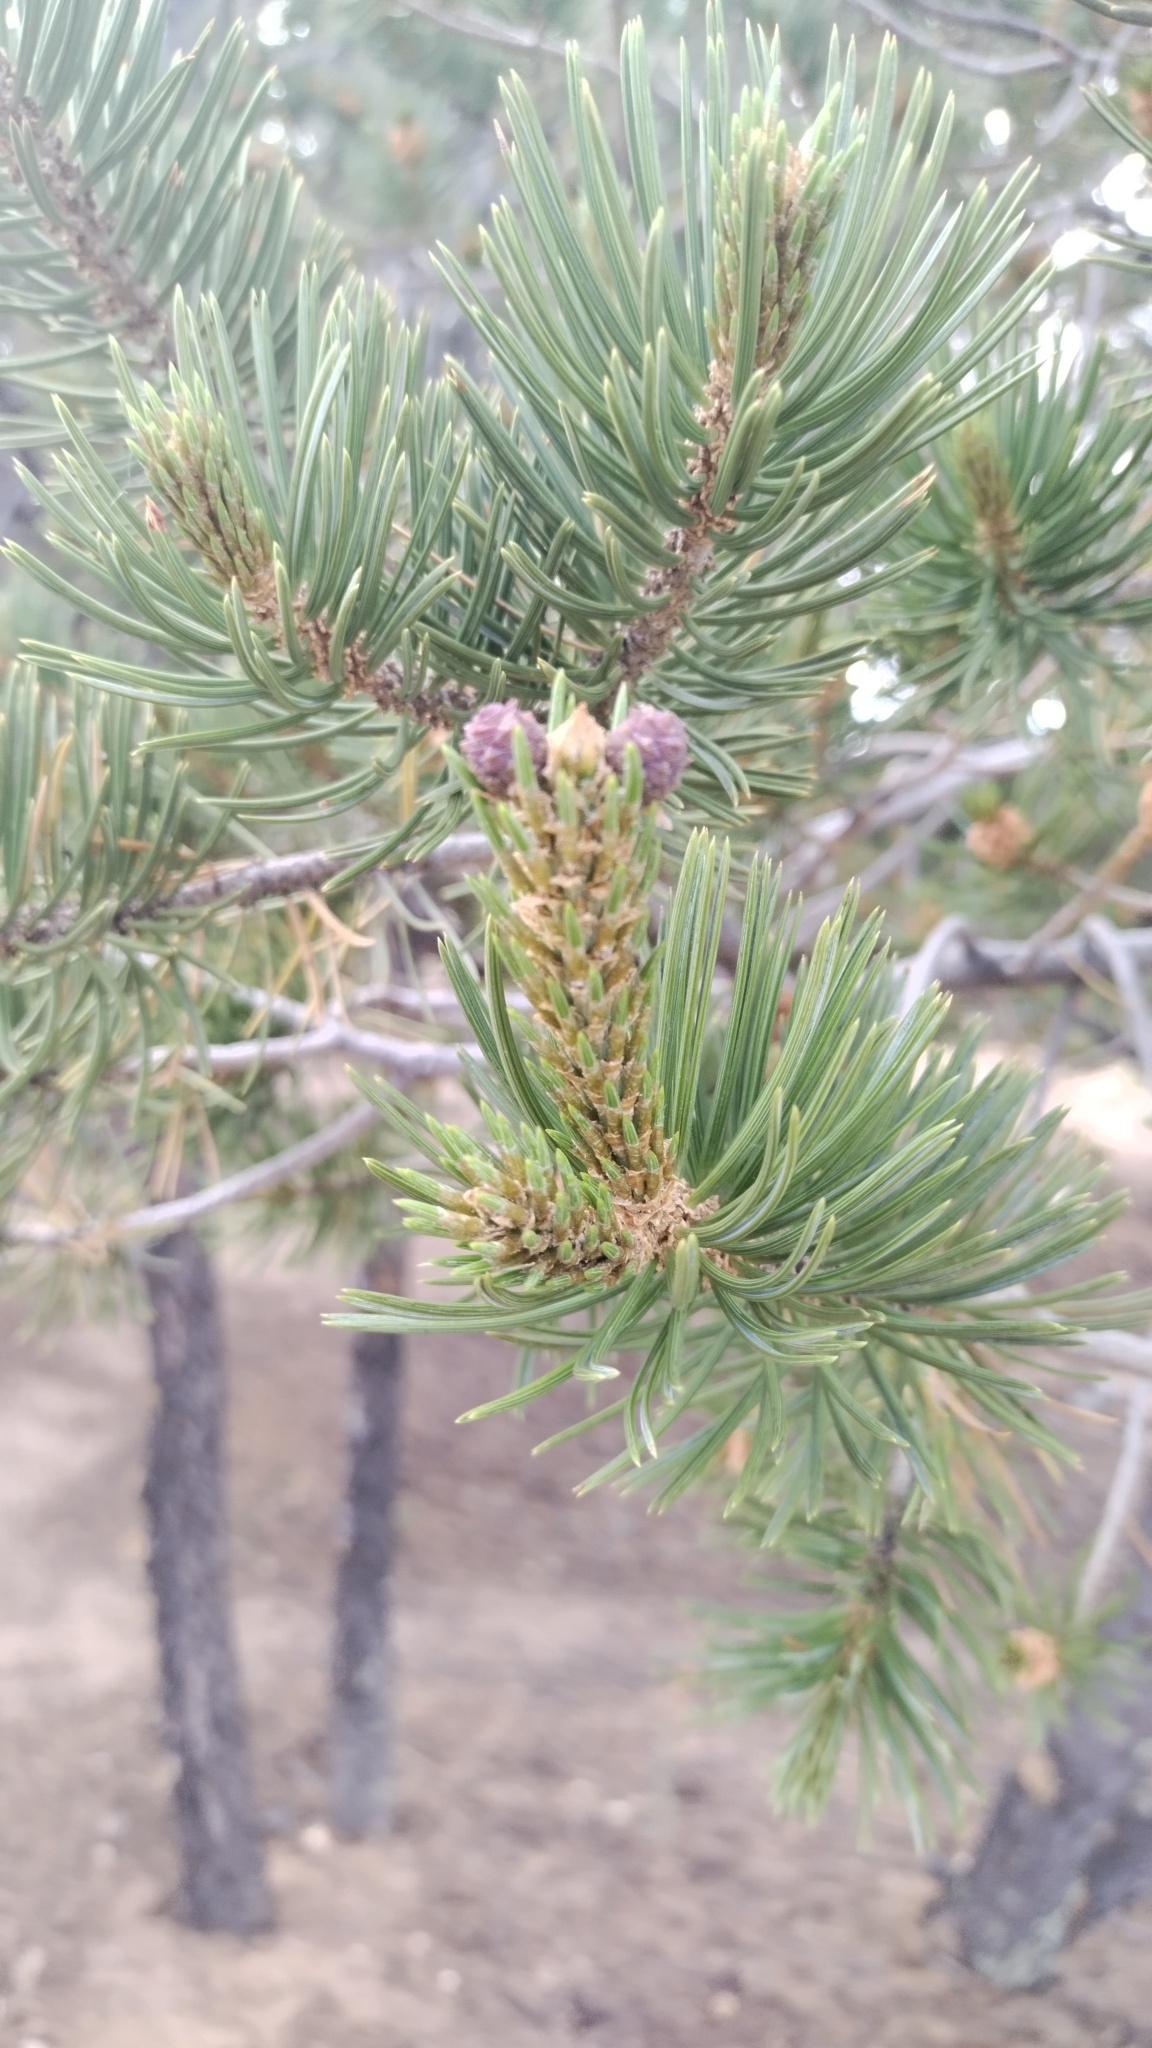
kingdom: Plantae
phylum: Tracheophyta
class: Pinopsida
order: Pinales
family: Pinaceae
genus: Pinus
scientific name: Pinus edulis
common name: Colorado pinyon
